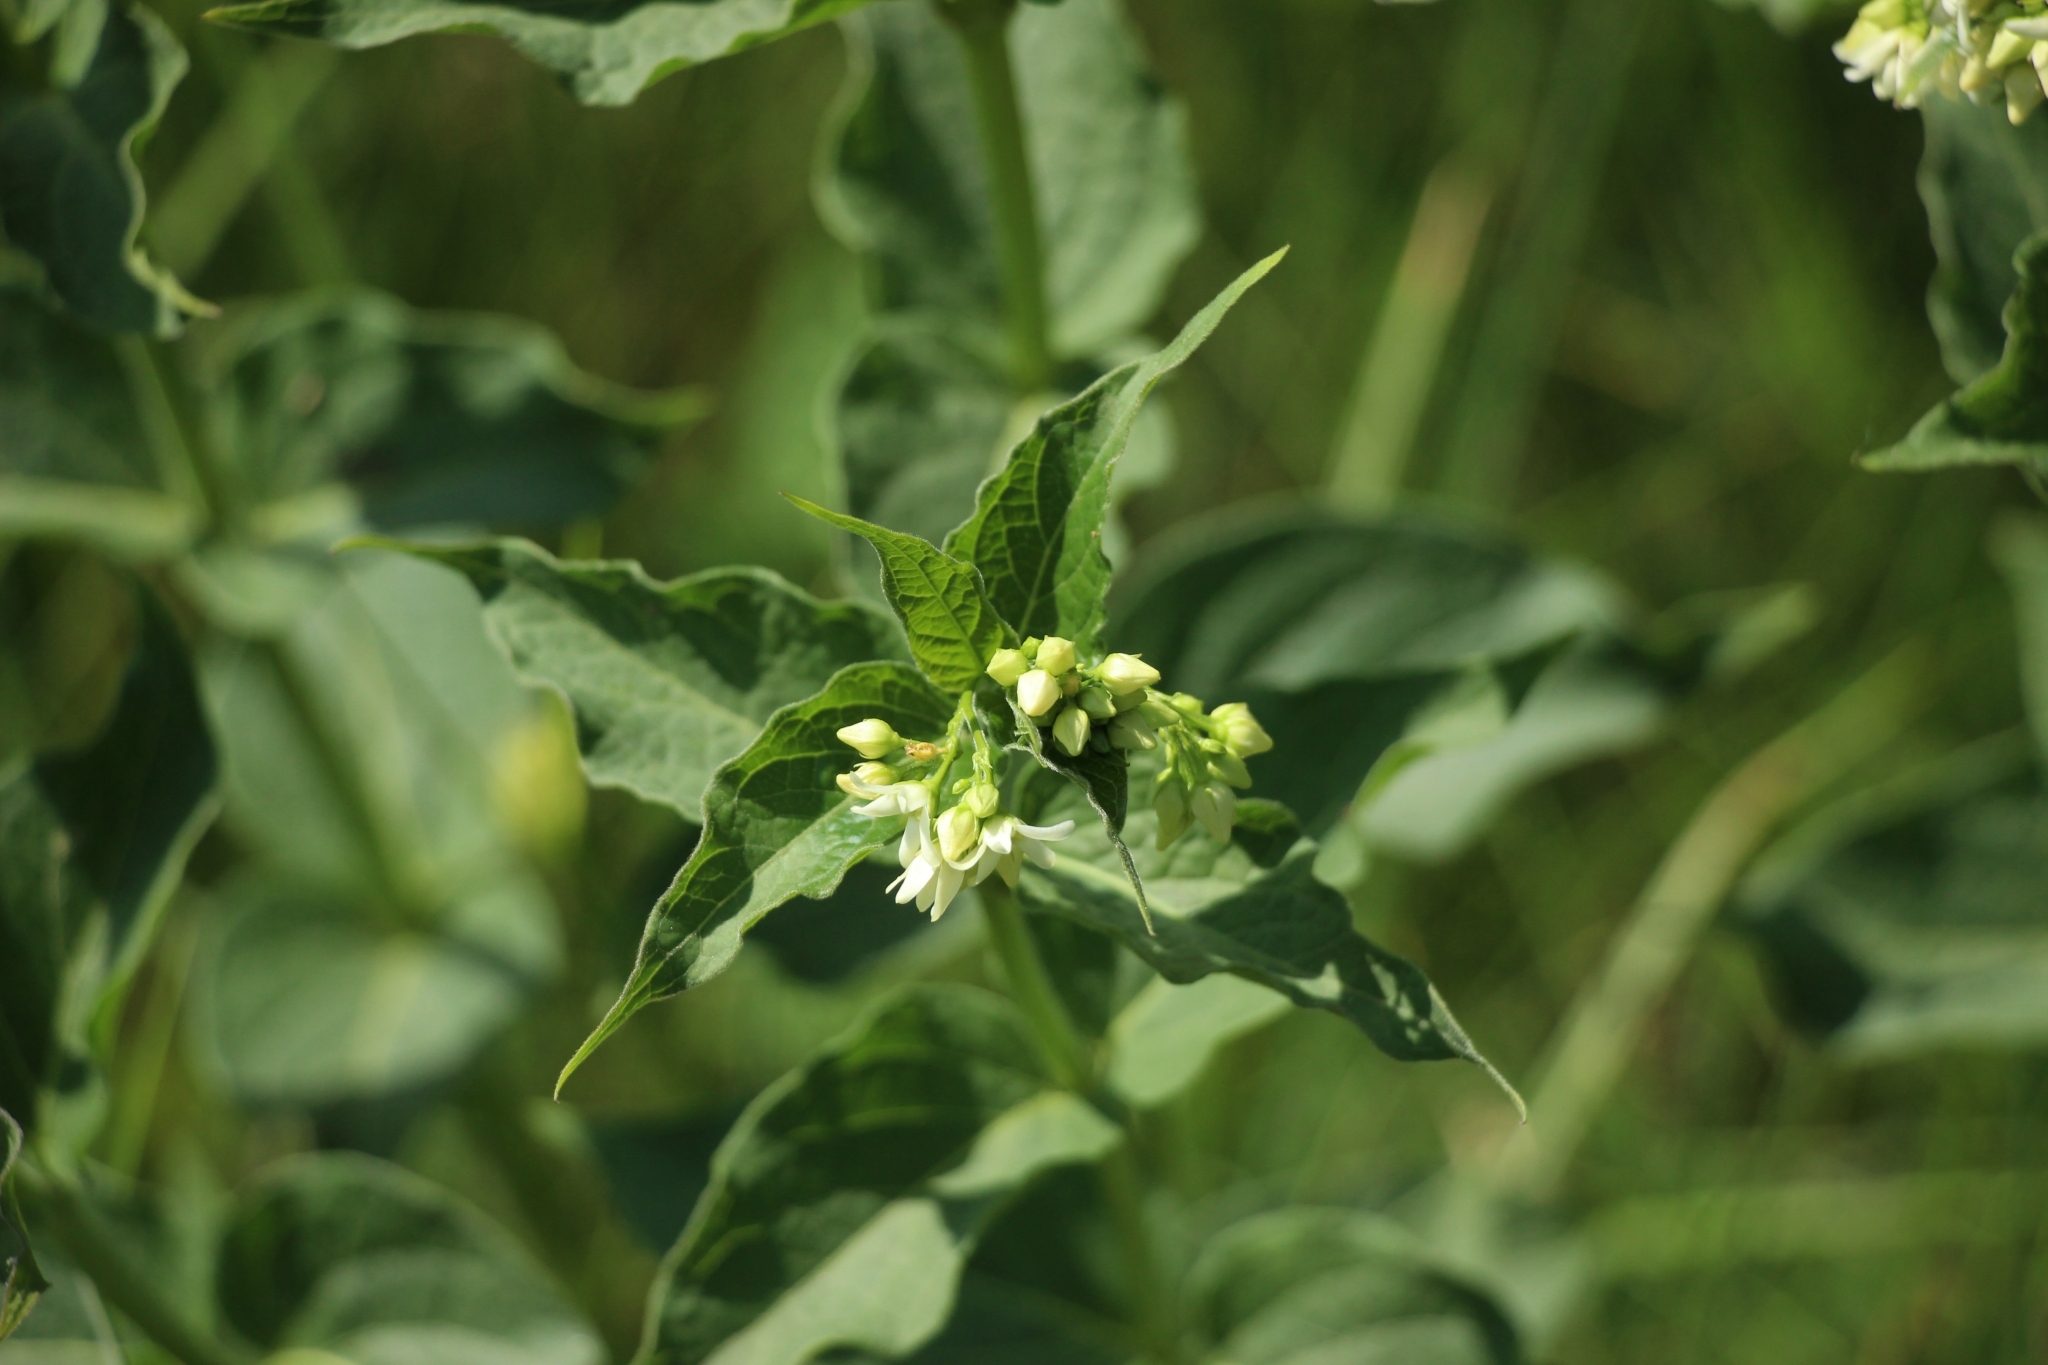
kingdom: Plantae
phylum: Tracheophyta
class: Magnoliopsida
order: Gentianales
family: Apocynaceae
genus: Vincetoxicum
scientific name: Vincetoxicum hirundinaria
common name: White swallowwort
